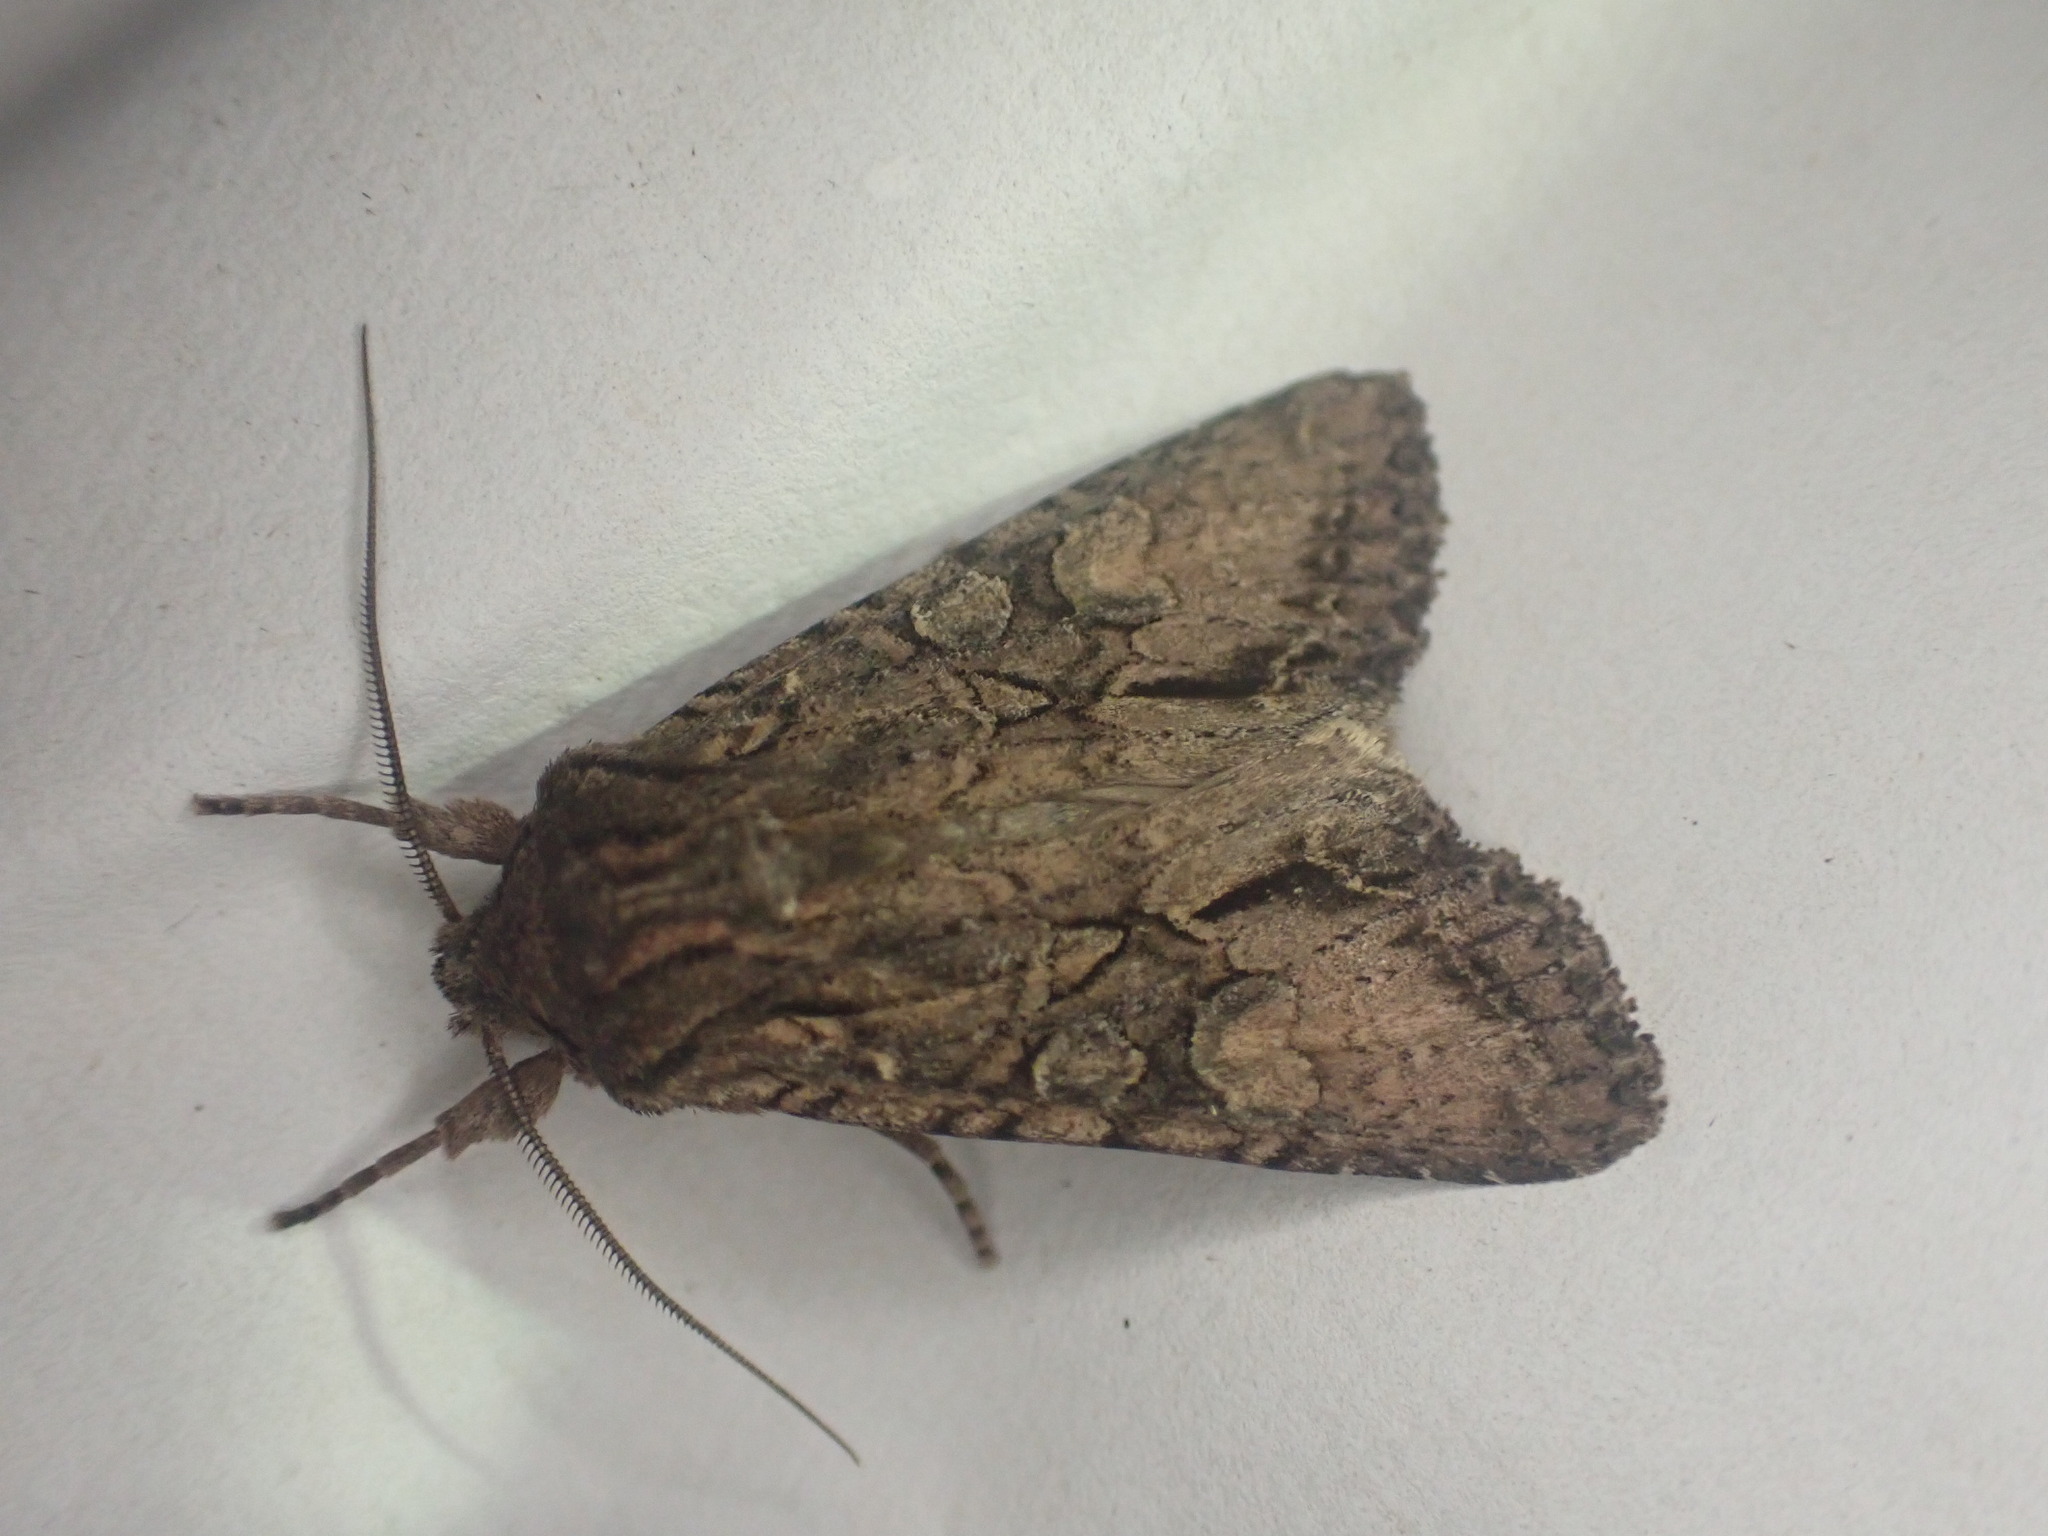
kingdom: Animalia
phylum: Arthropoda
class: Insecta
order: Lepidoptera
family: Noctuidae
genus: Ichneutica
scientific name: Ichneutica mutans
